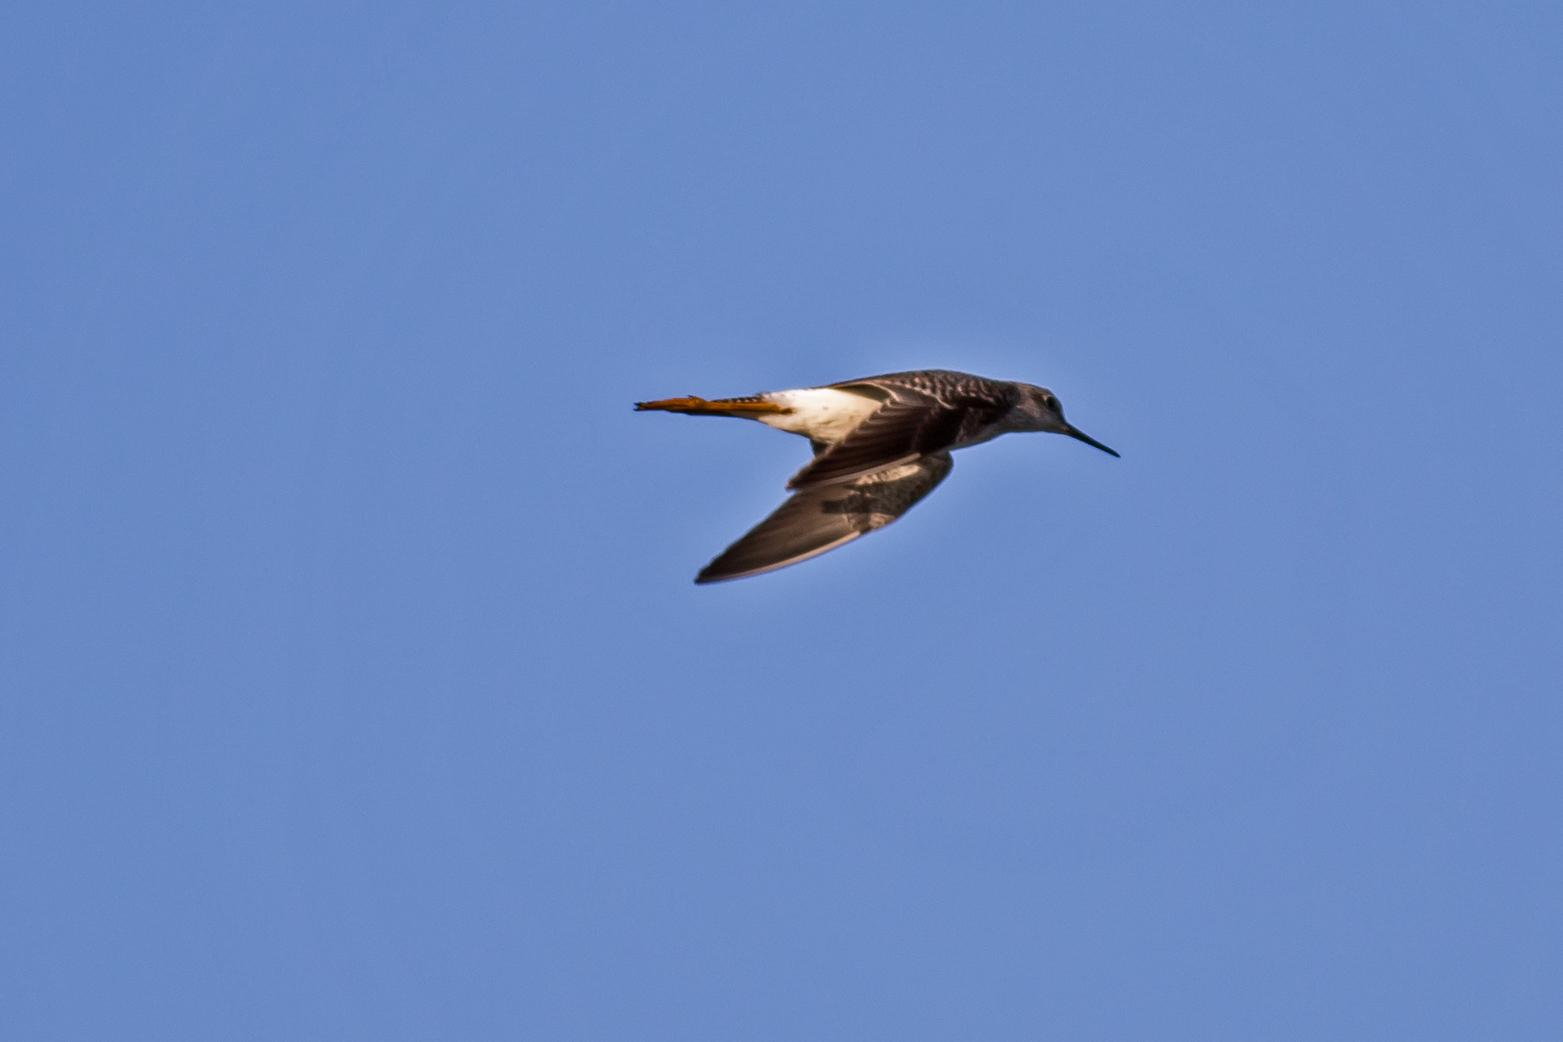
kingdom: Animalia
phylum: Chordata
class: Aves
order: Charadriiformes
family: Scolopacidae
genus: Tringa
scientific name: Tringa flavipes
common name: Lesser yellowlegs
